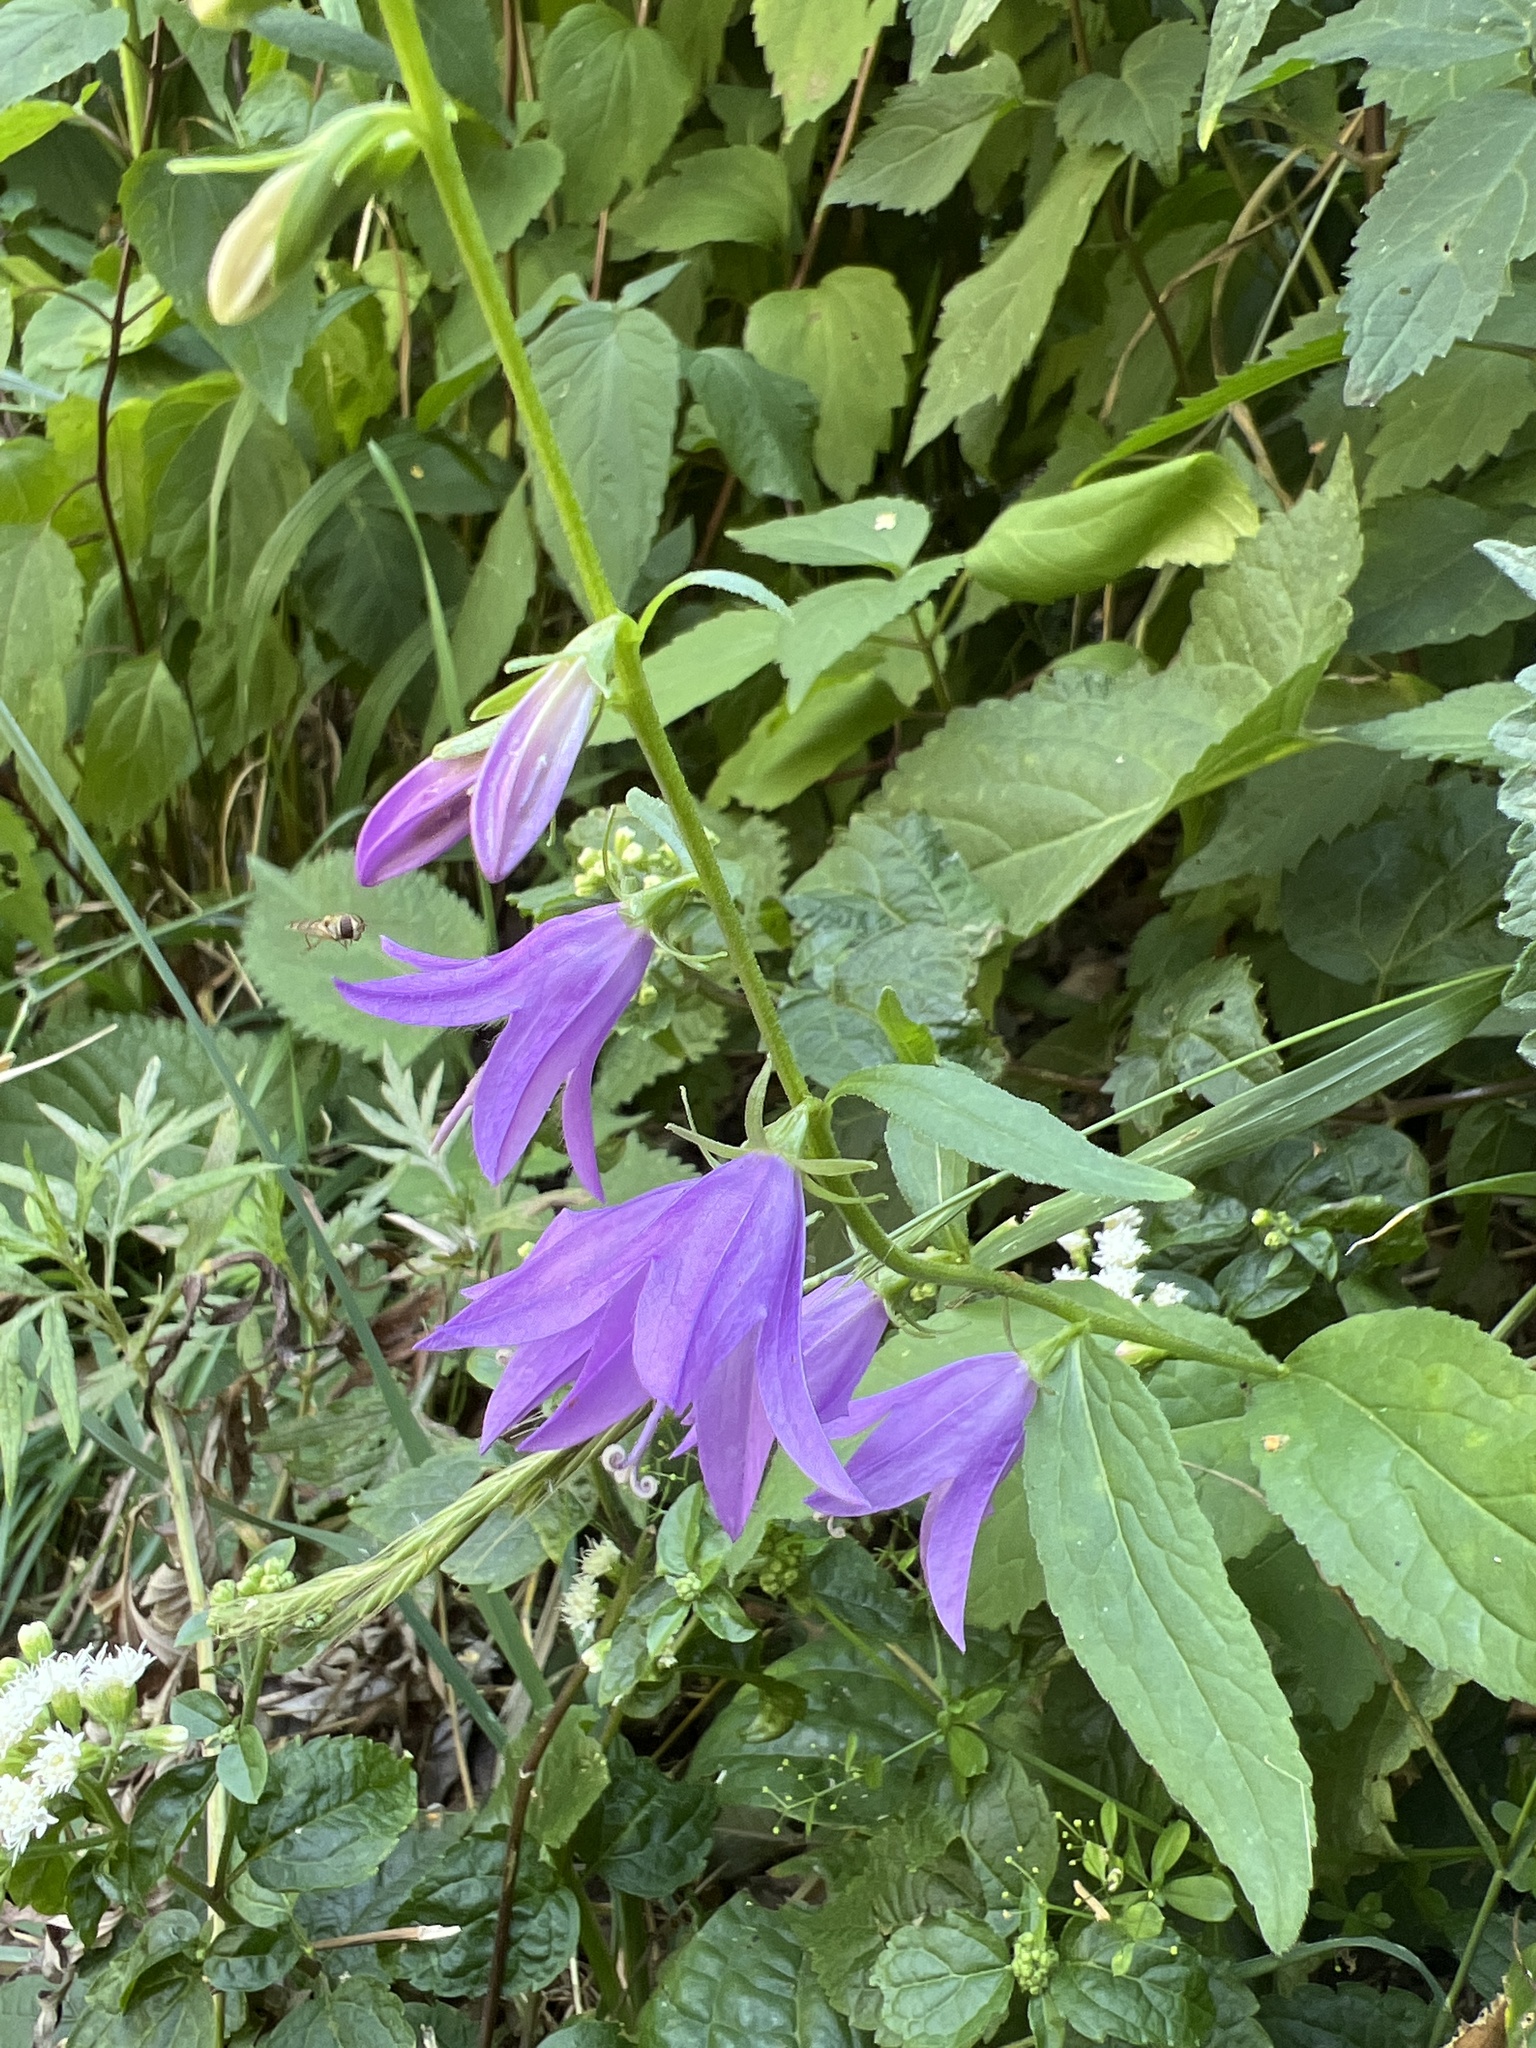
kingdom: Plantae
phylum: Tracheophyta
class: Magnoliopsida
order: Asterales
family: Campanulaceae
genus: Campanula
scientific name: Campanula rapunculoides
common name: Creeping bellflower
